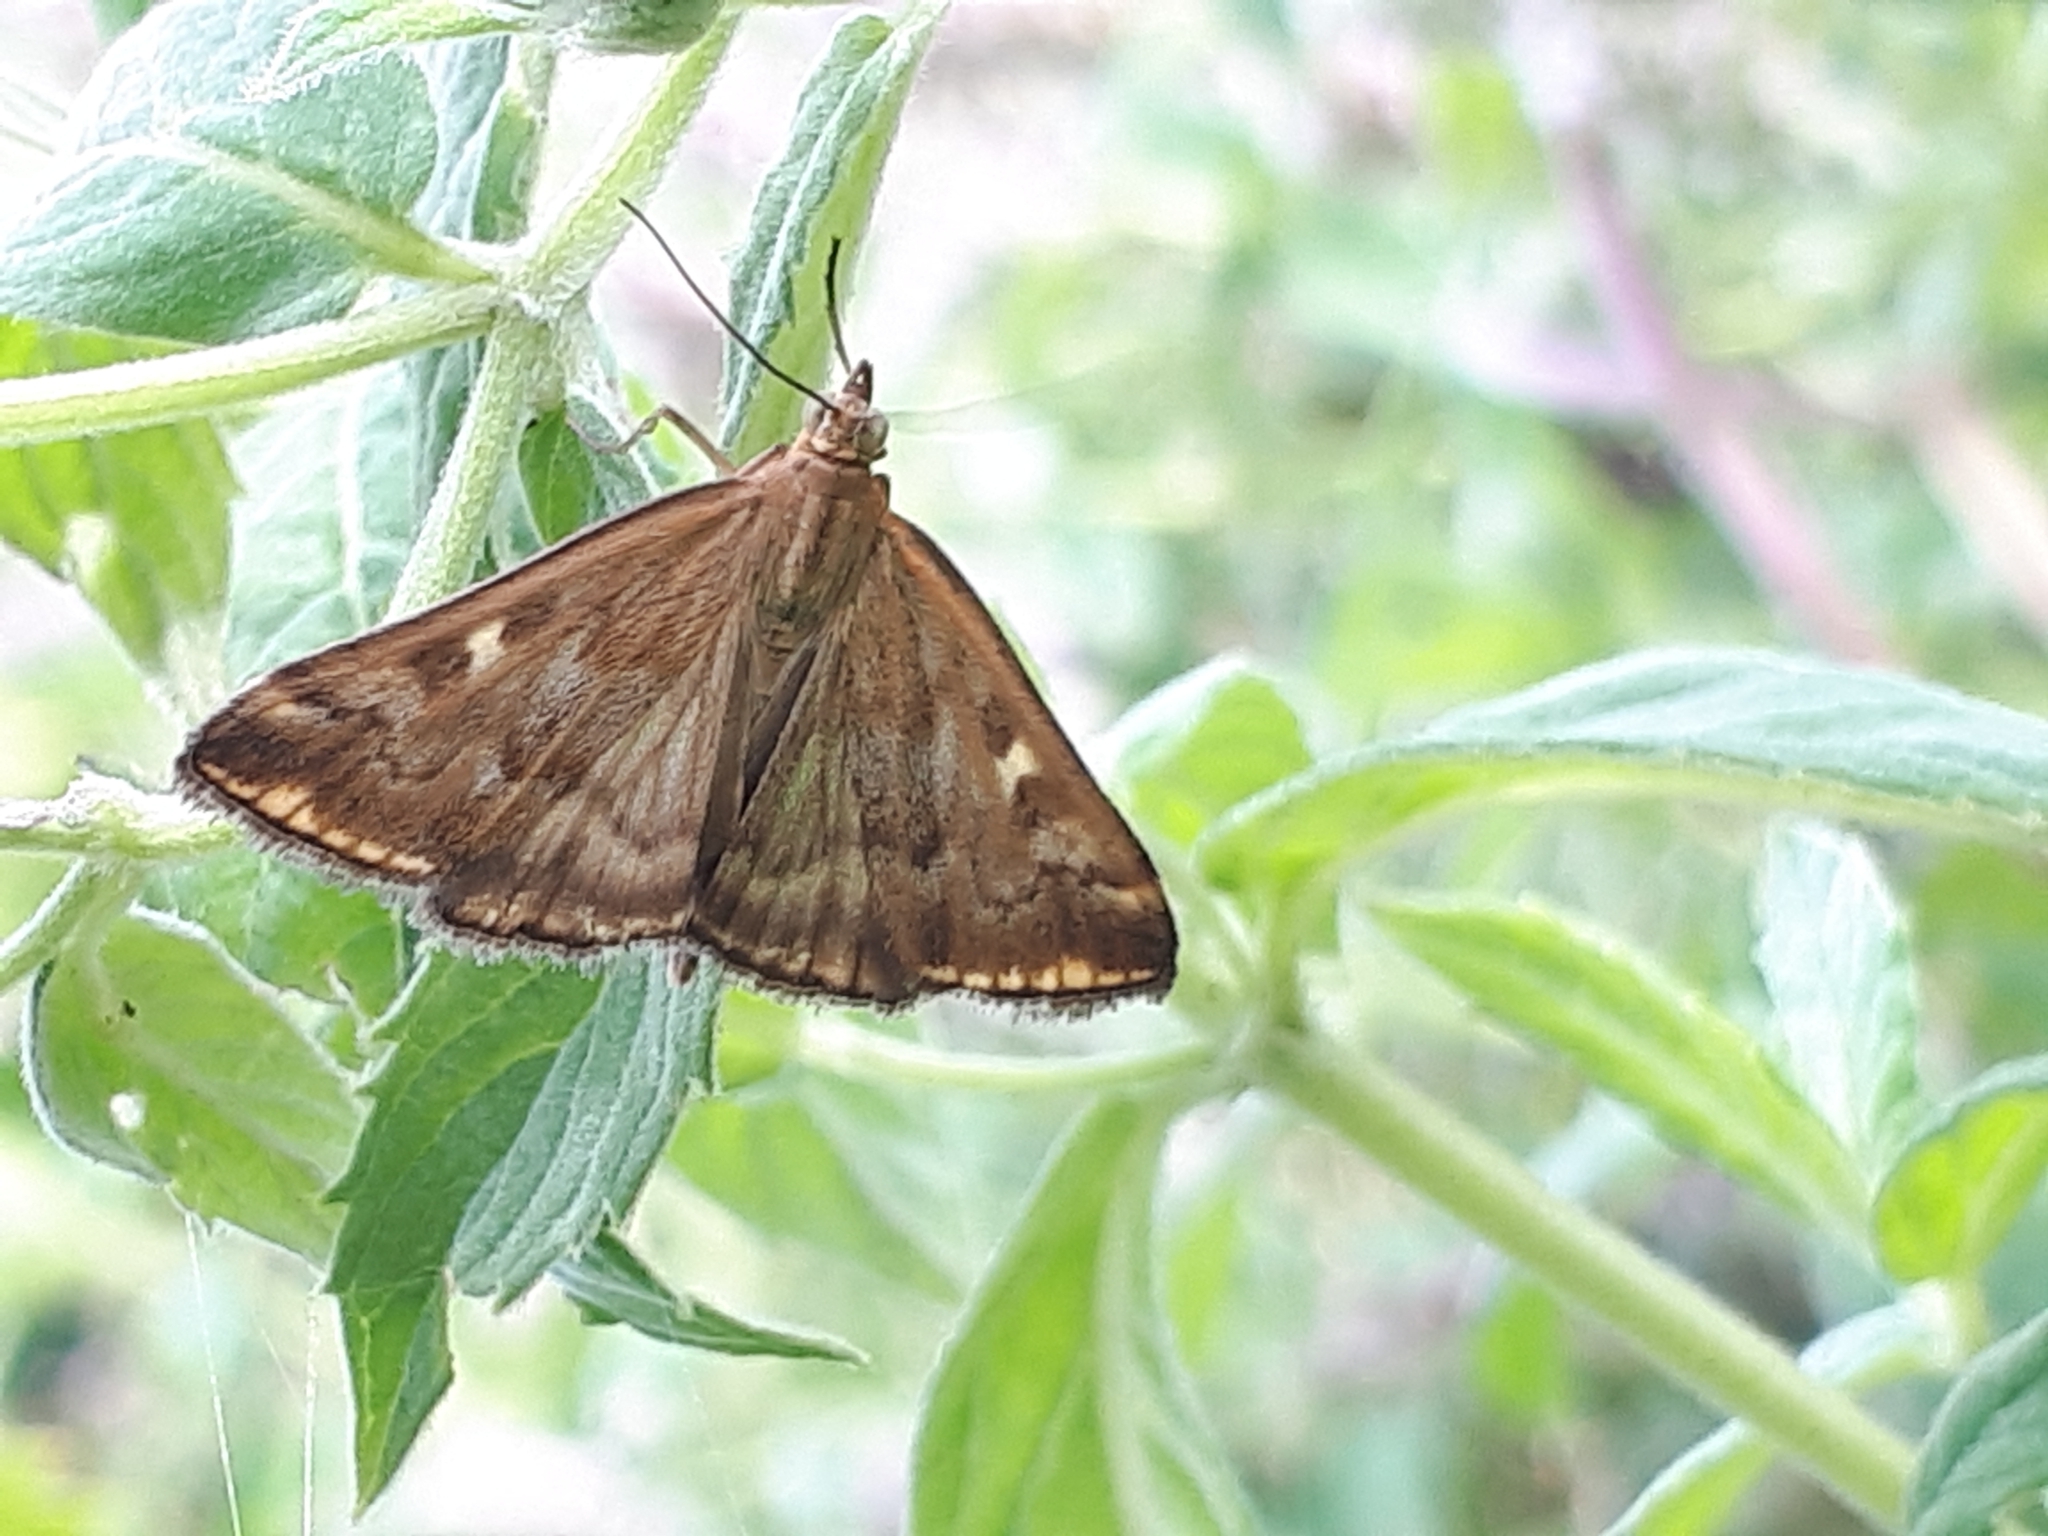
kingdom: Animalia
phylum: Arthropoda
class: Insecta
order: Lepidoptera
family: Crambidae
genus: Loxostege
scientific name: Loxostege sticticalis
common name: Crambid moth
